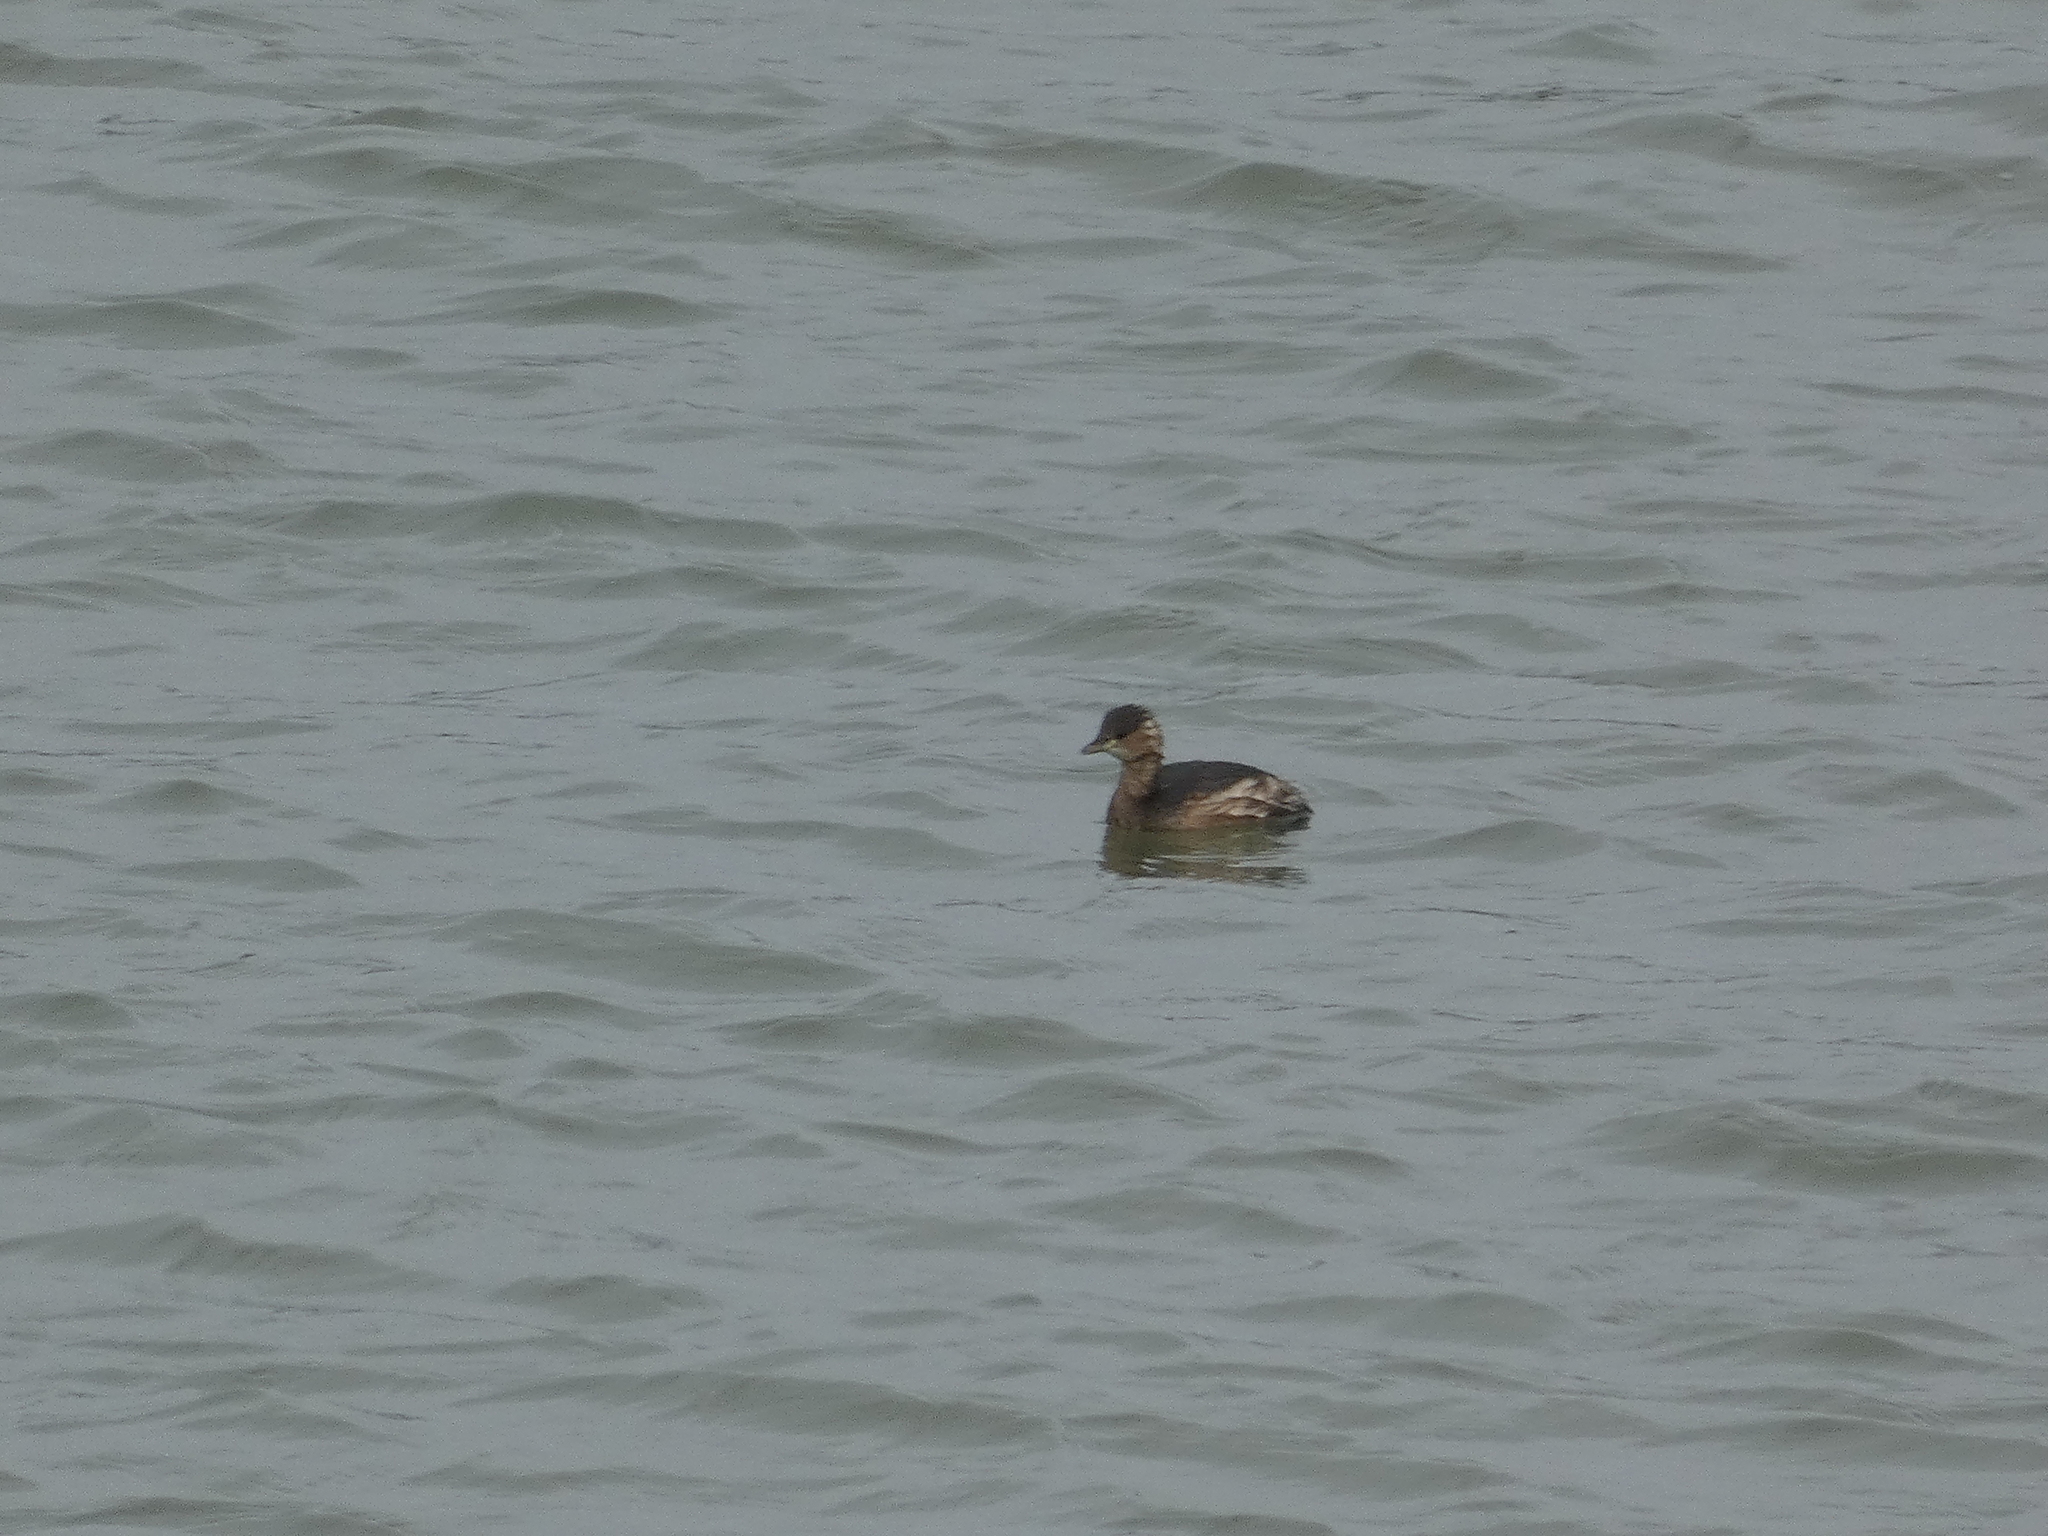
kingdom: Animalia
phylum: Chordata
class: Aves
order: Podicipediformes
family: Podicipedidae
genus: Tachybaptus
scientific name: Tachybaptus ruficollis
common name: Little grebe
